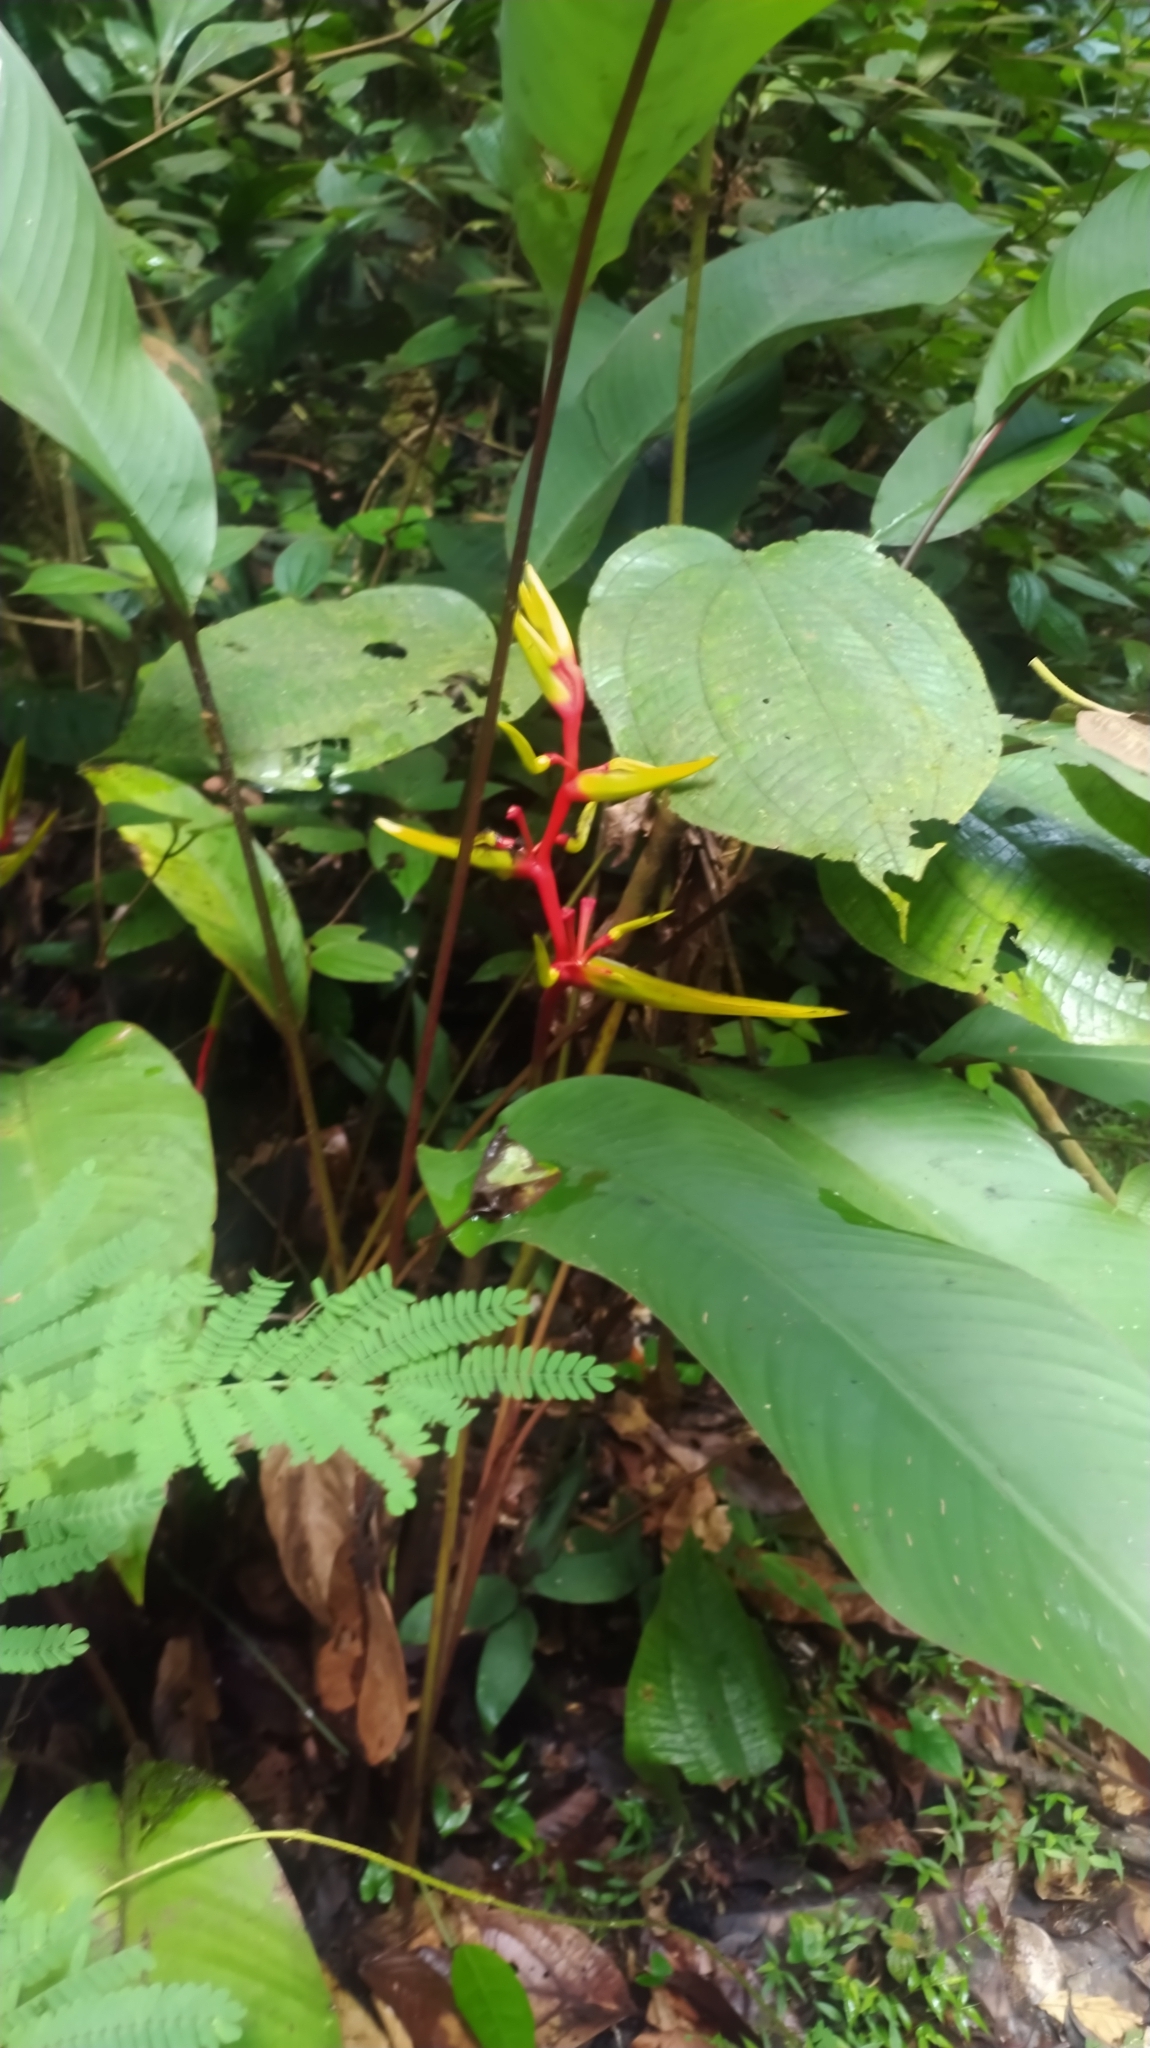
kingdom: Plantae
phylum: Tracheophyta
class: Liliopsida
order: Zingiberales
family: Heliconiaceae
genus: Heliconia
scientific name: Heliconia richardiana
